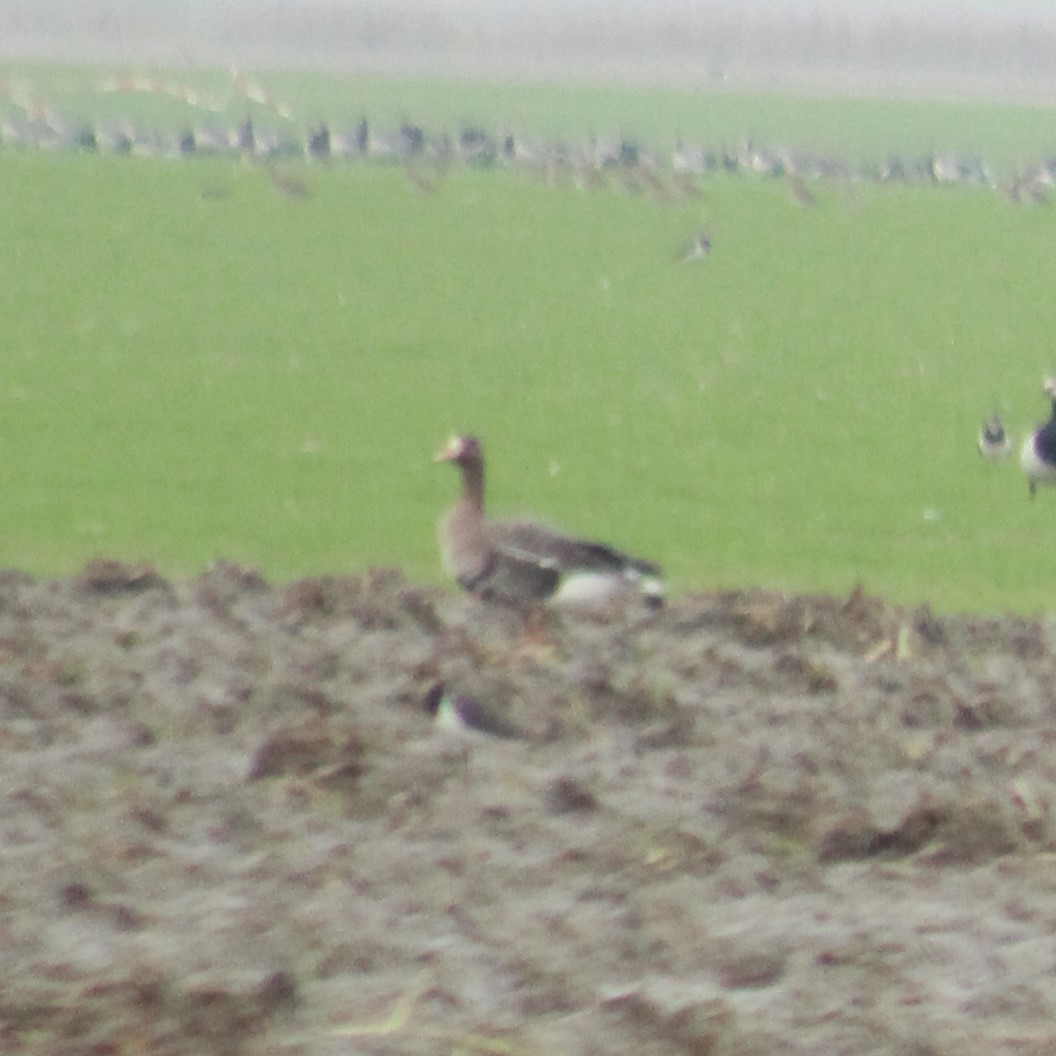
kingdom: Animalia
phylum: Chordata
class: Aves
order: Anseriformes
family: Anatidae
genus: Anser
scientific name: Anser albifrons
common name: Greater white-fronted goose
